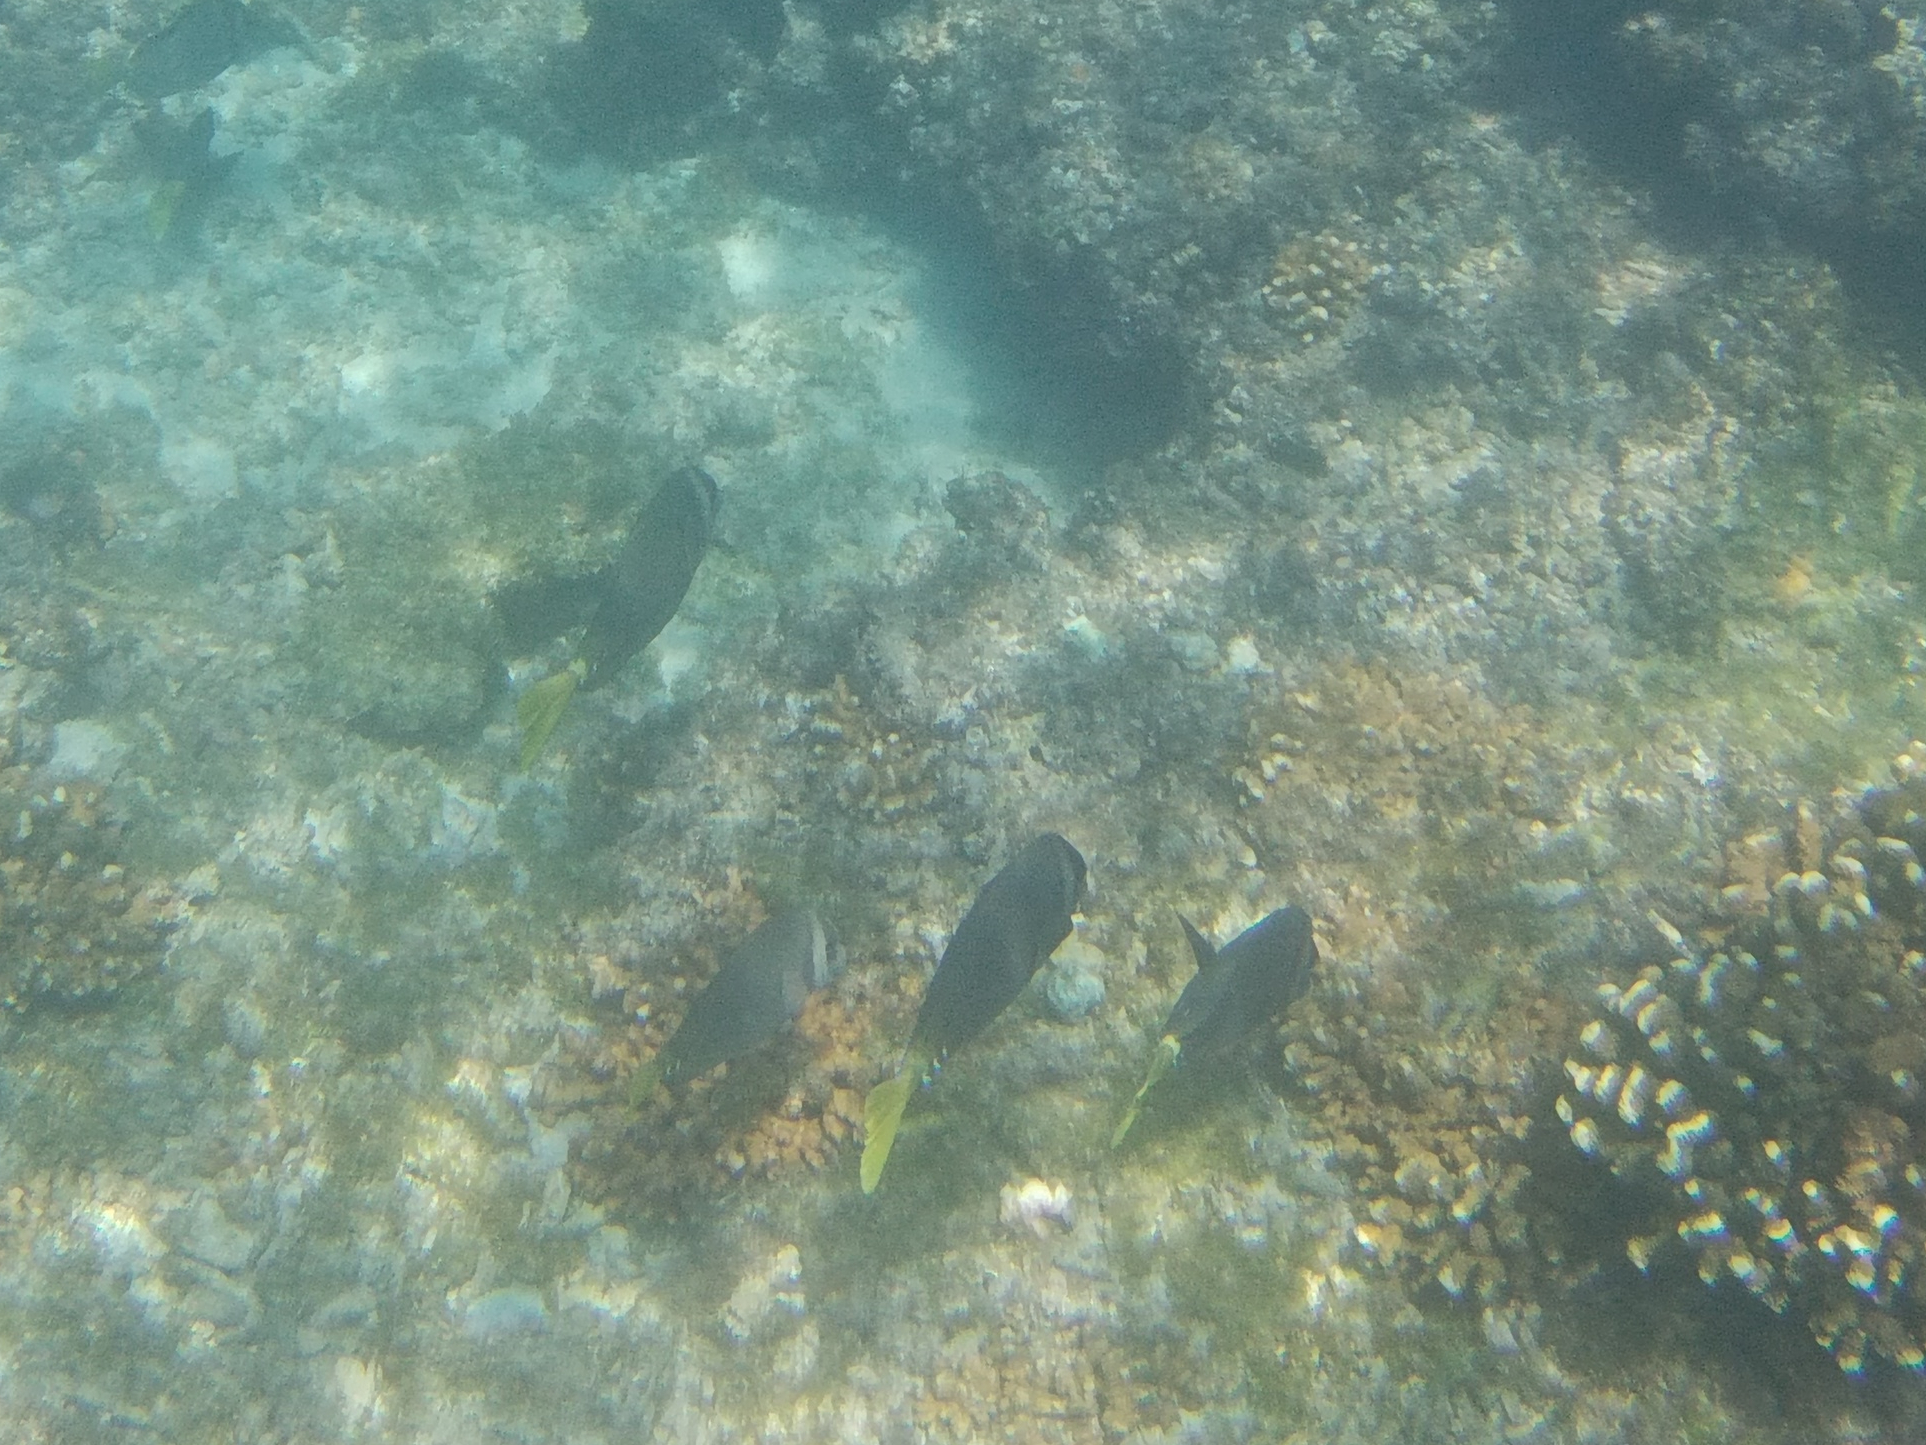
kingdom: Animalia
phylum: Chordata
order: Perciformes
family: Acanthuridae
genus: Prionurus
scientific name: Prionurus laticlavius
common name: Razor surgeonfish
